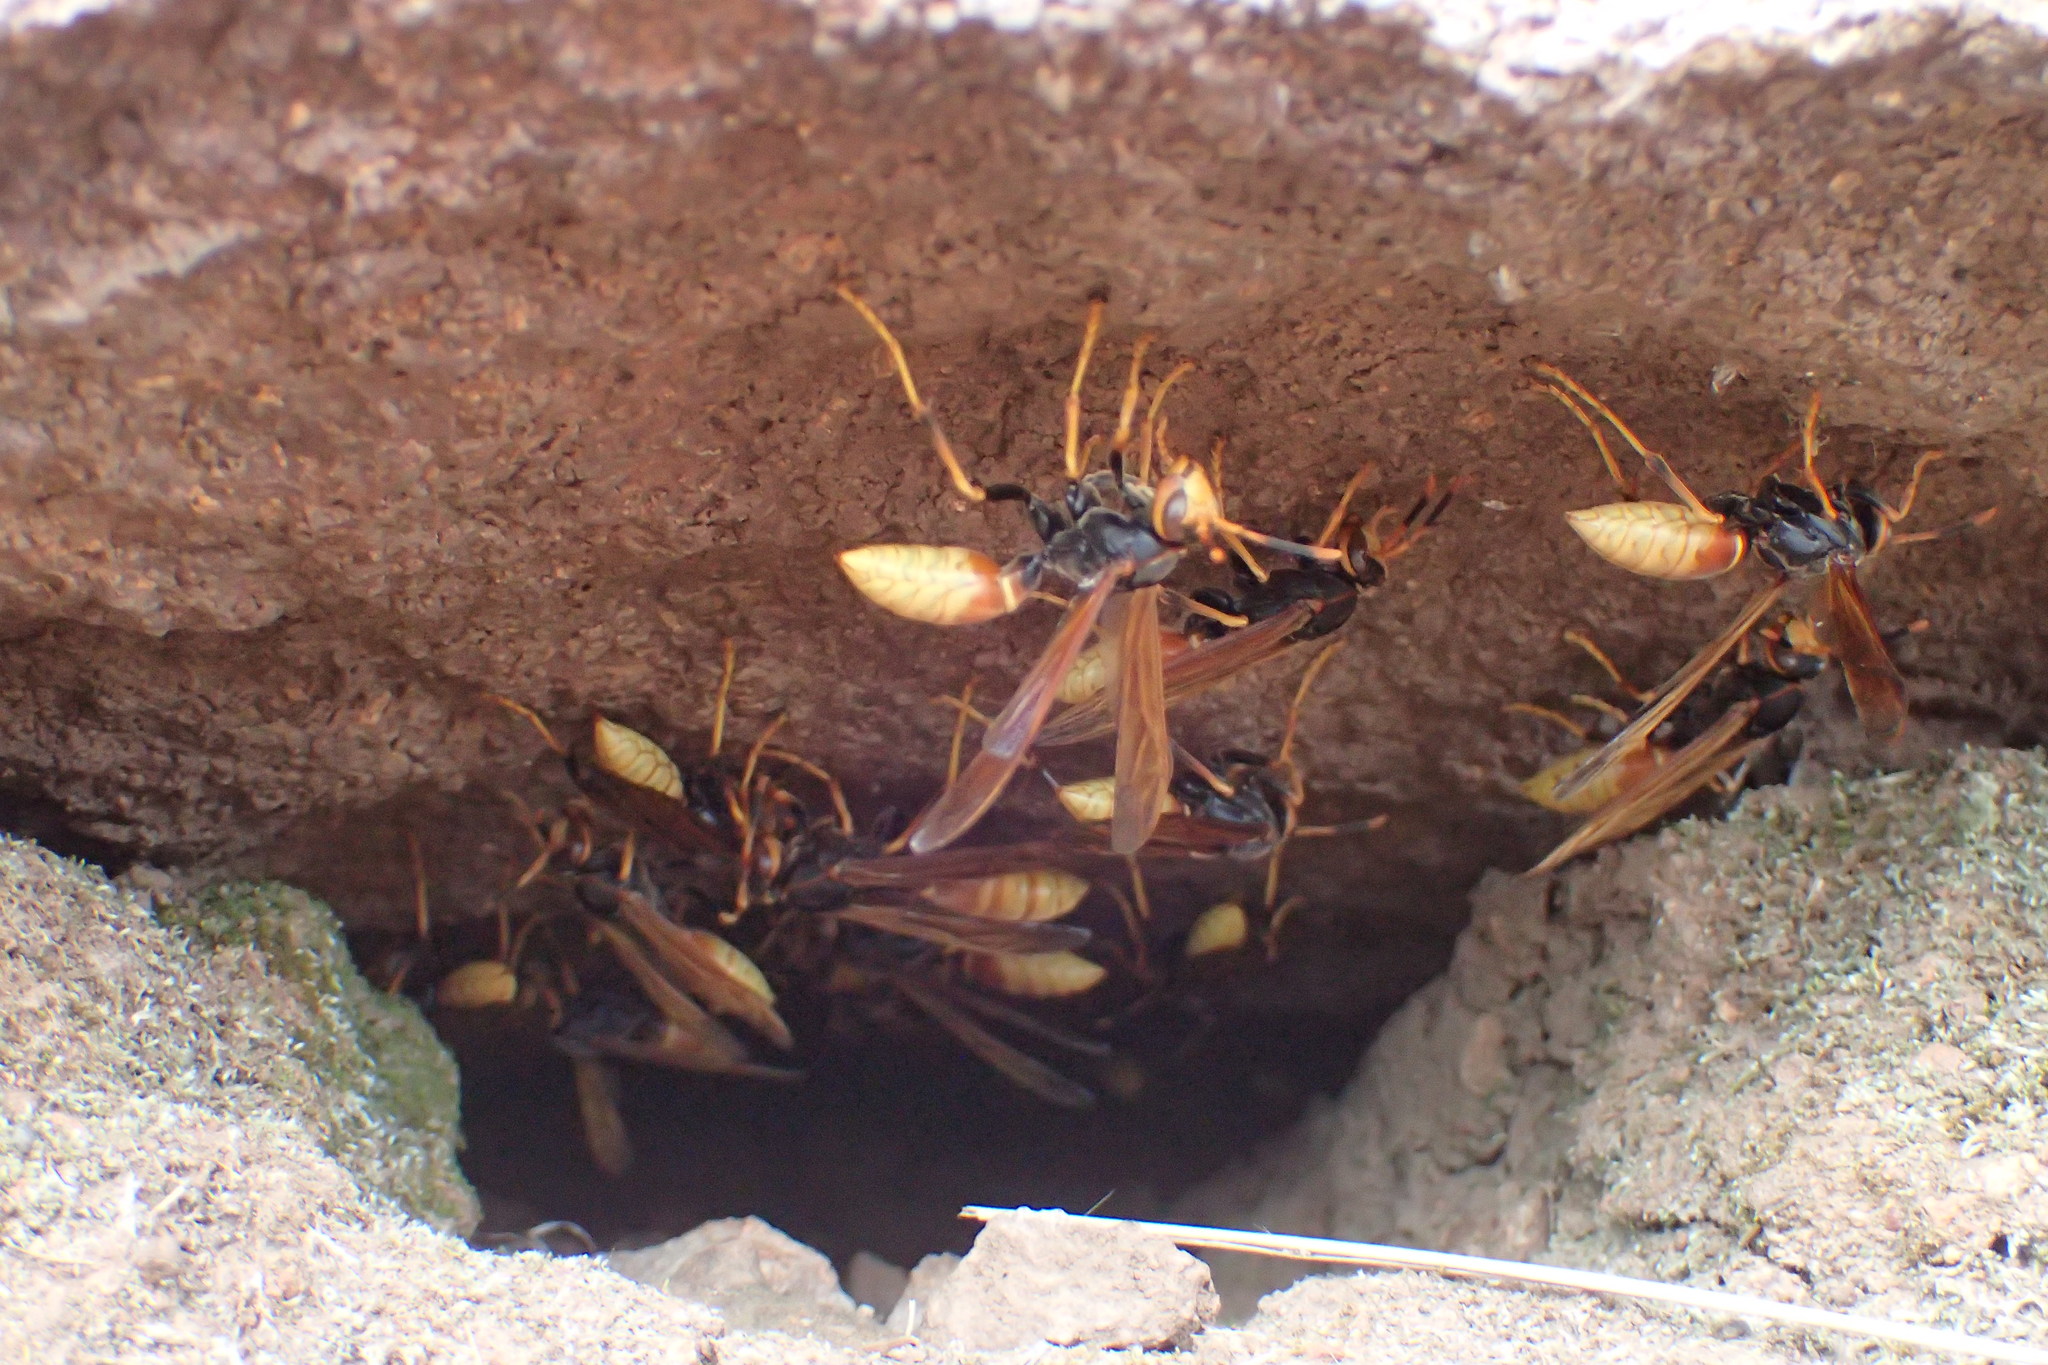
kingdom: Animalia
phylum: Arthropoda
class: Insecta
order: Hymenoptera
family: Eumenidae
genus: Polistes
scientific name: Polistes comanchus
